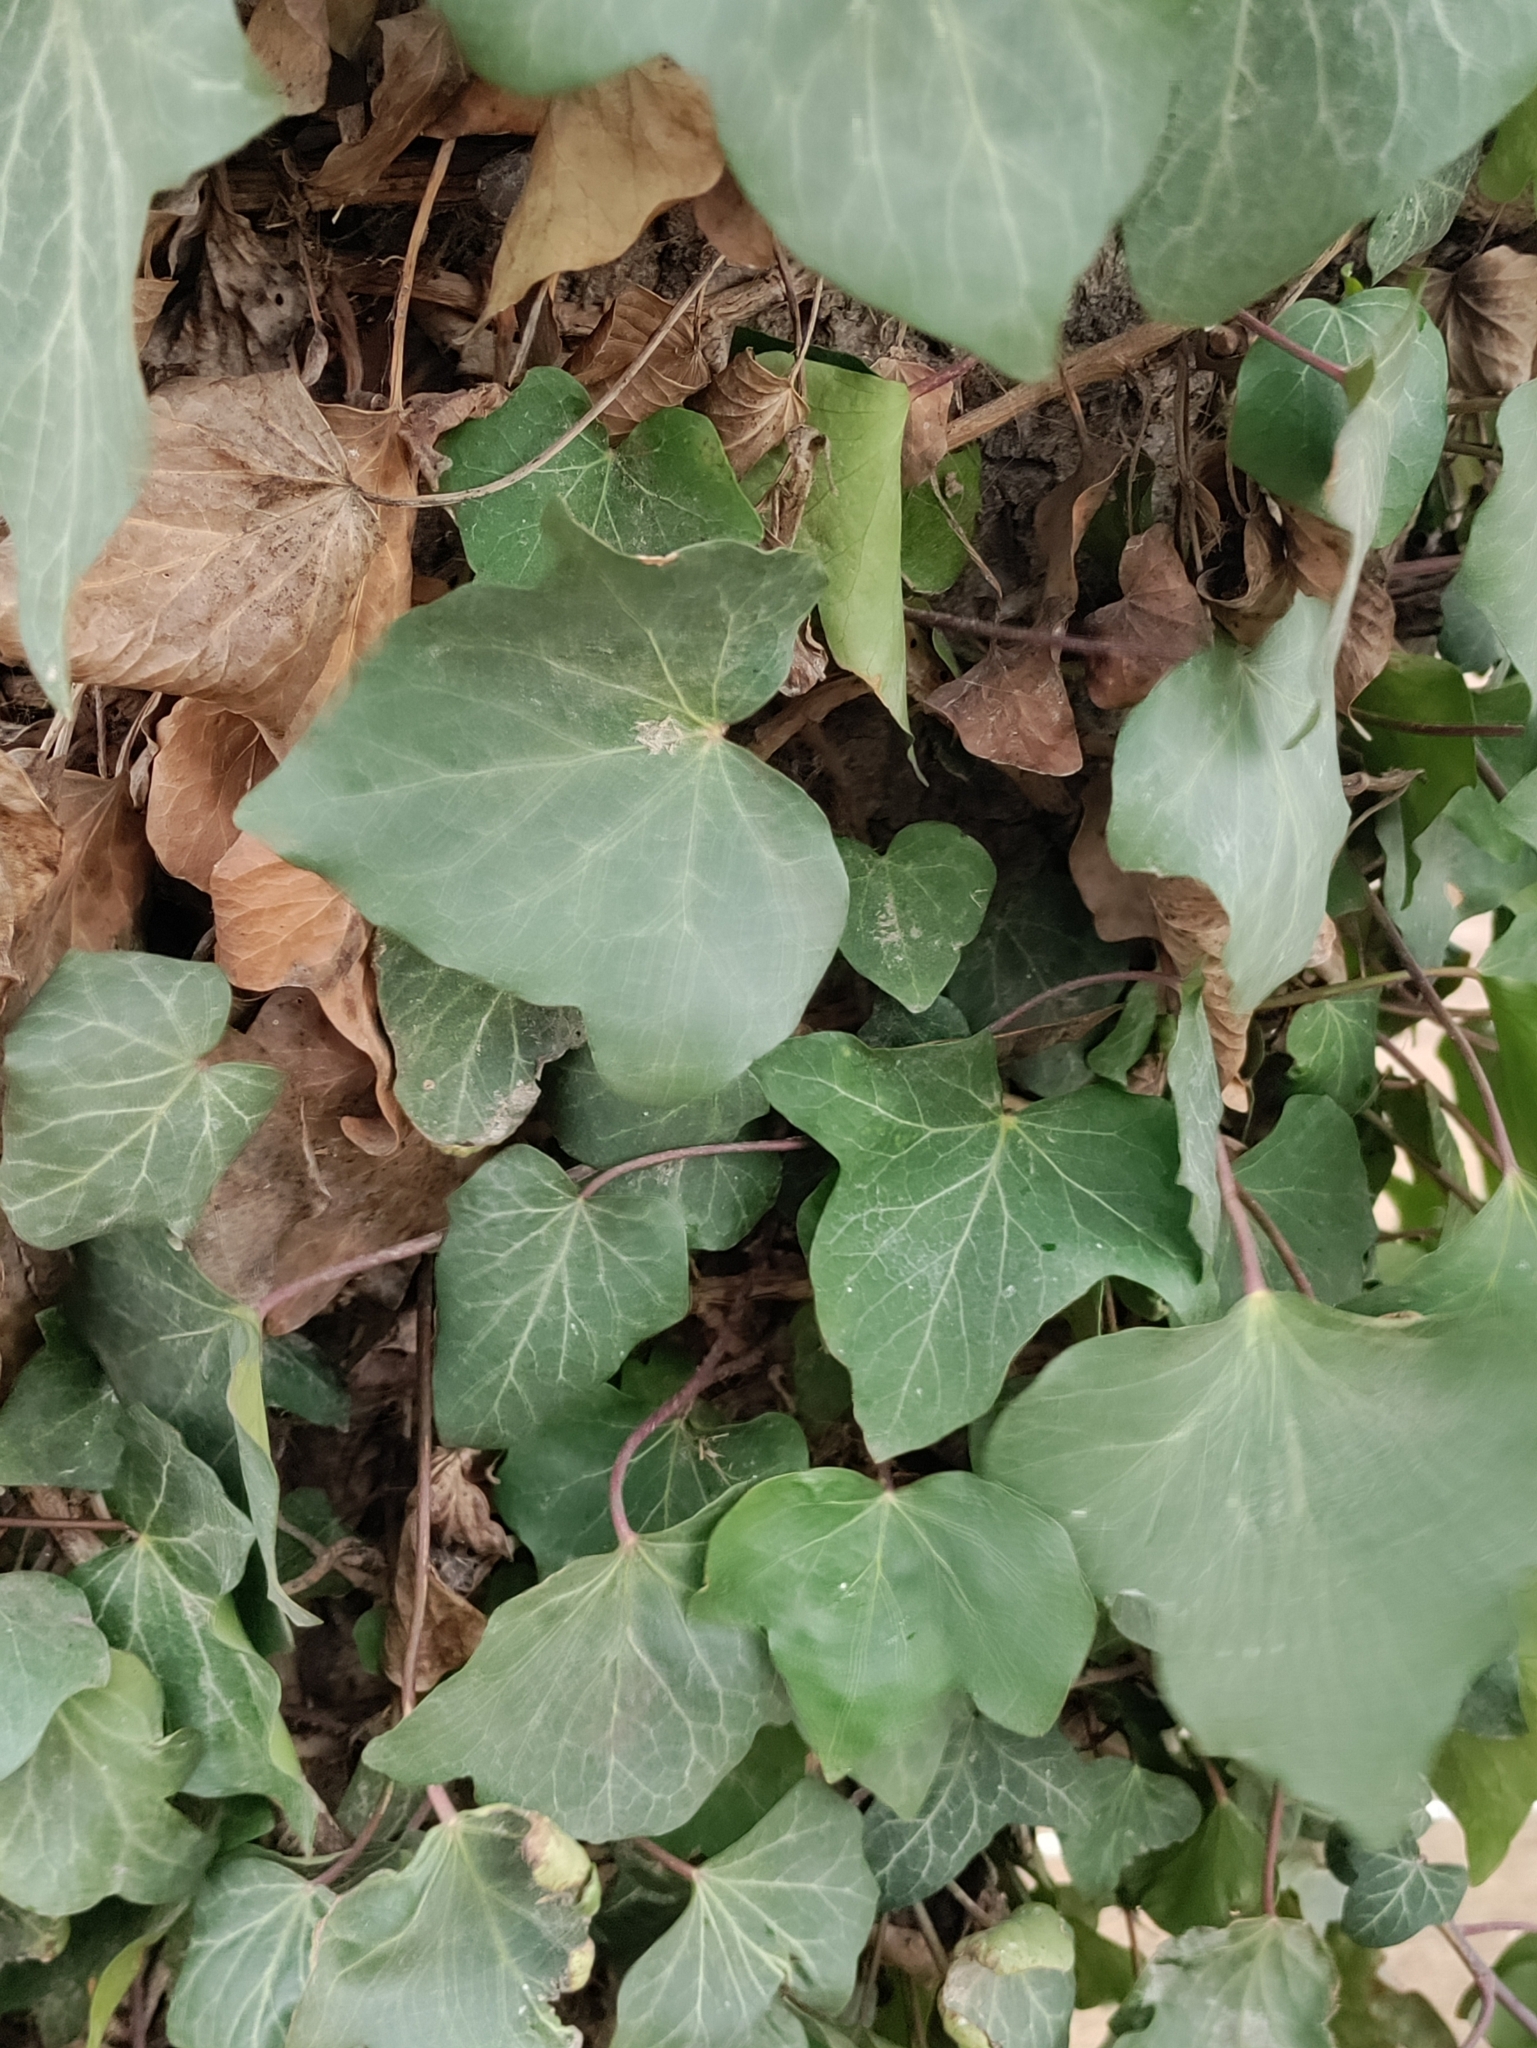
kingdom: Plantae
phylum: Tracheophyta
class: Magnoliopsida
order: Apiales
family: Araliaceae
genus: Hedera
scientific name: Hedera helix
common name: Ivy
